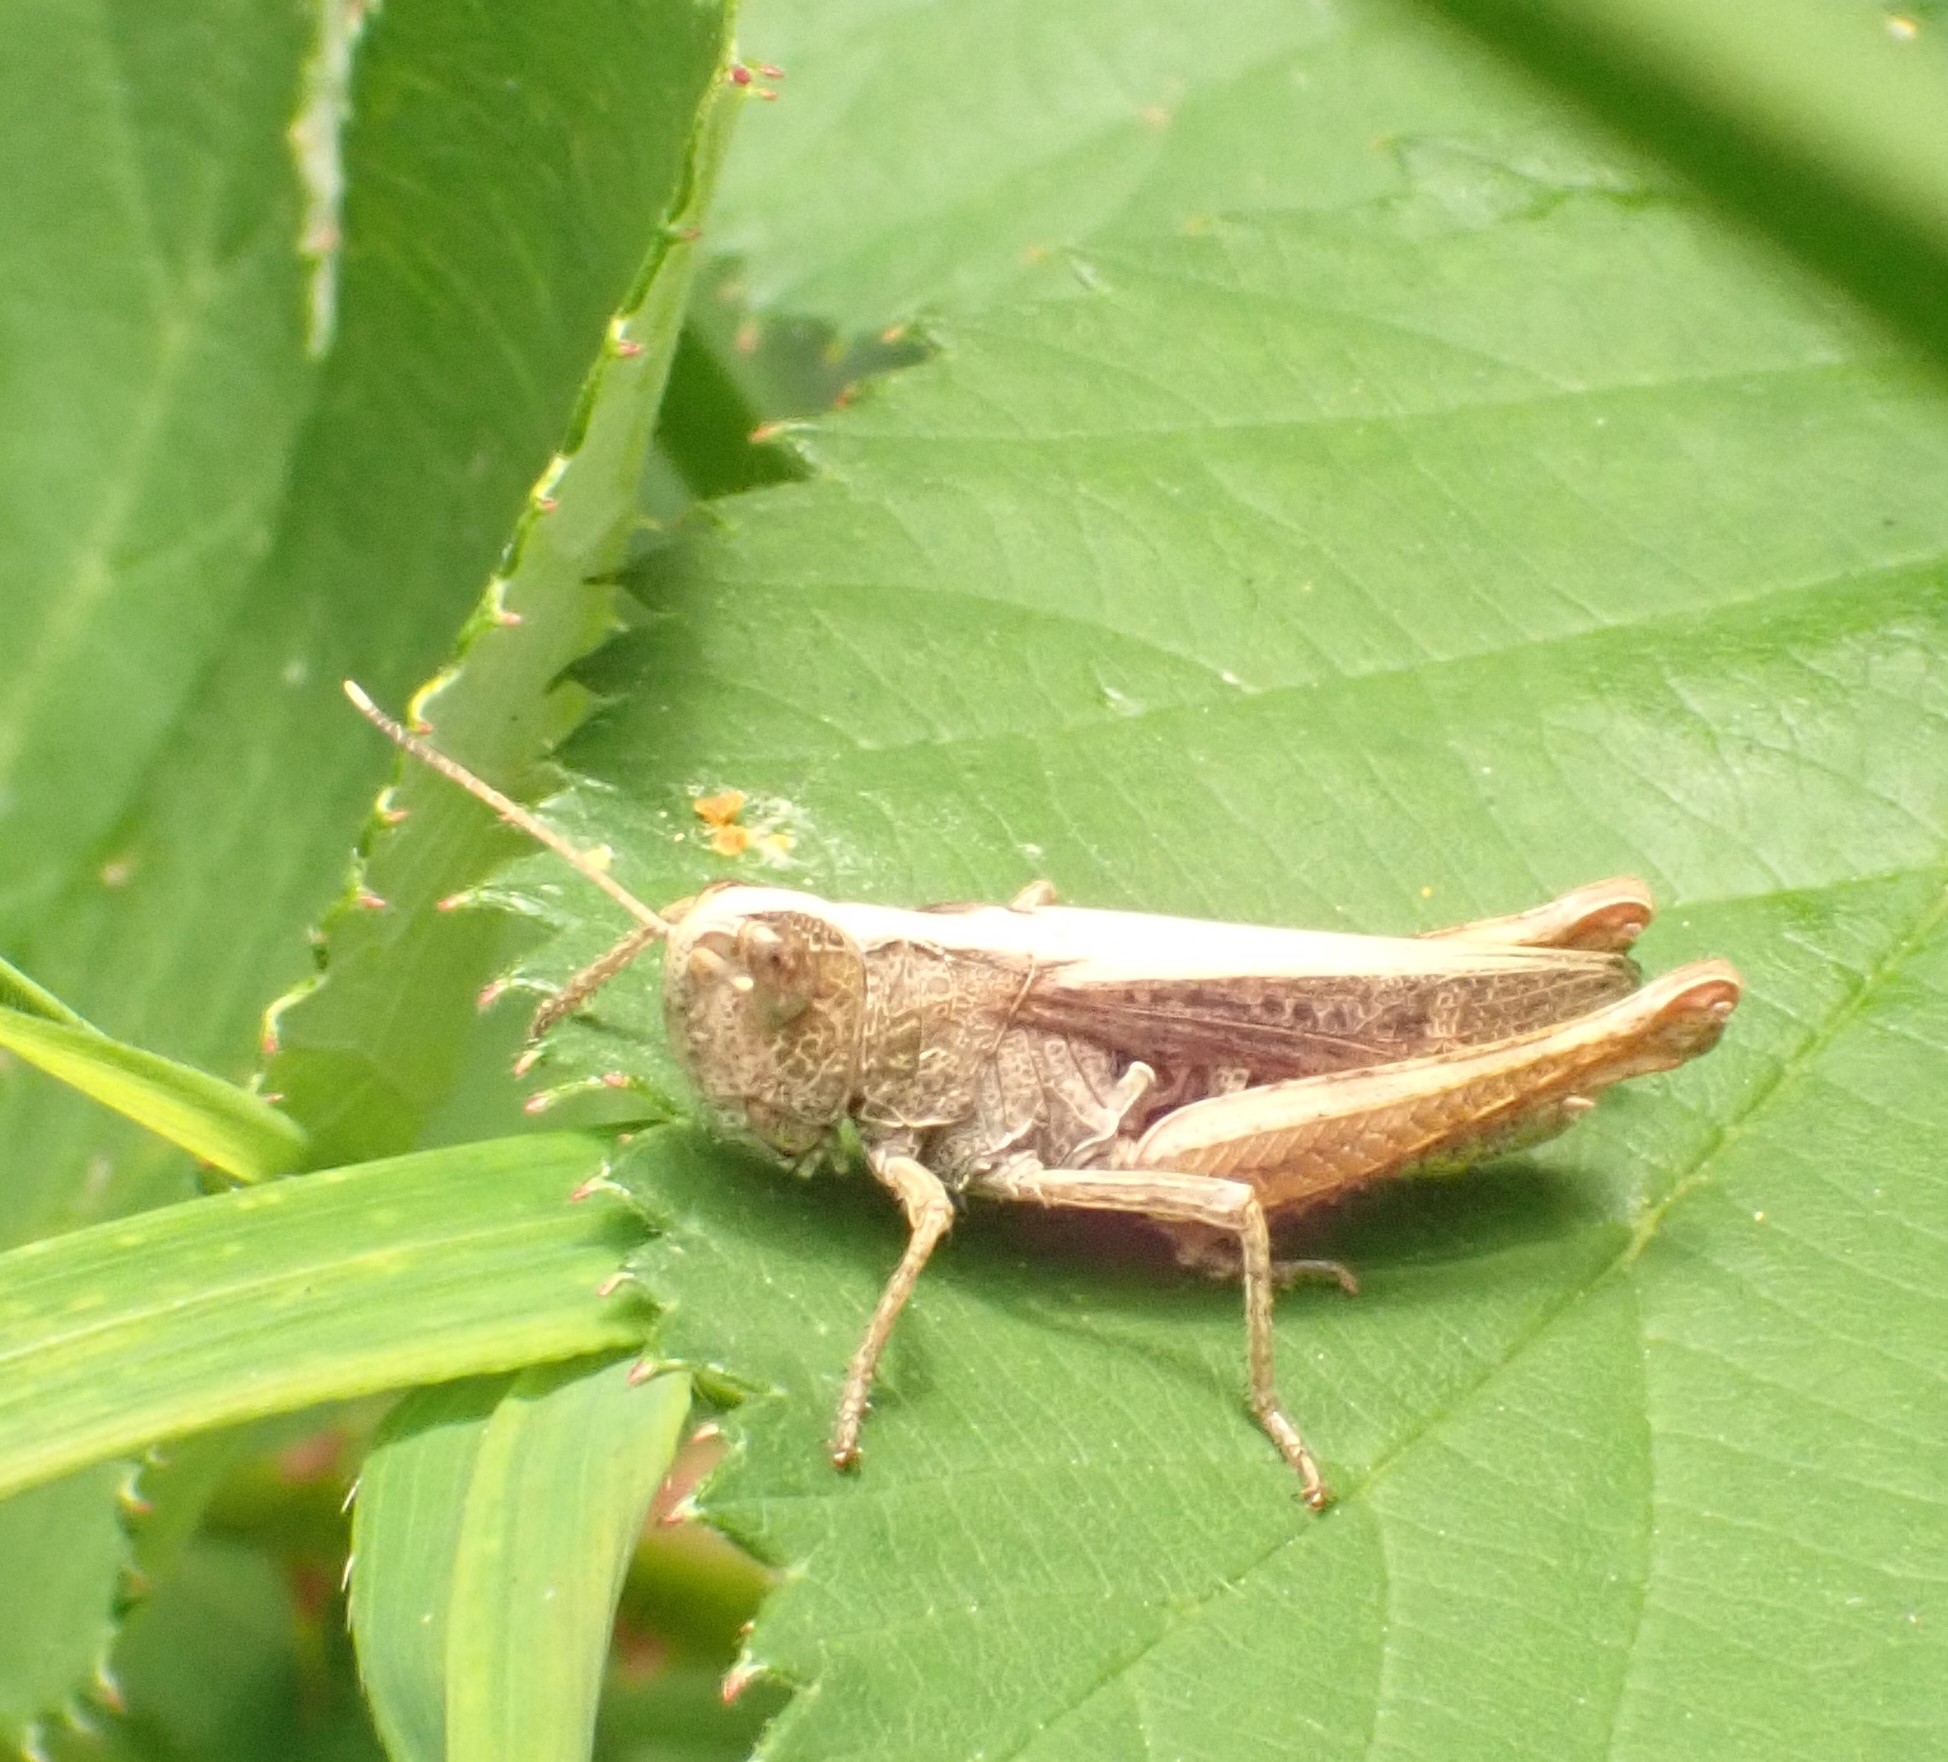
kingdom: Animalia
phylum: Arthropoda
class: Insecta
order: Orthoptera
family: Acrididae
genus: Gomphocerippus
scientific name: Gomphocerippus rufus
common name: Rufous grasshopper
